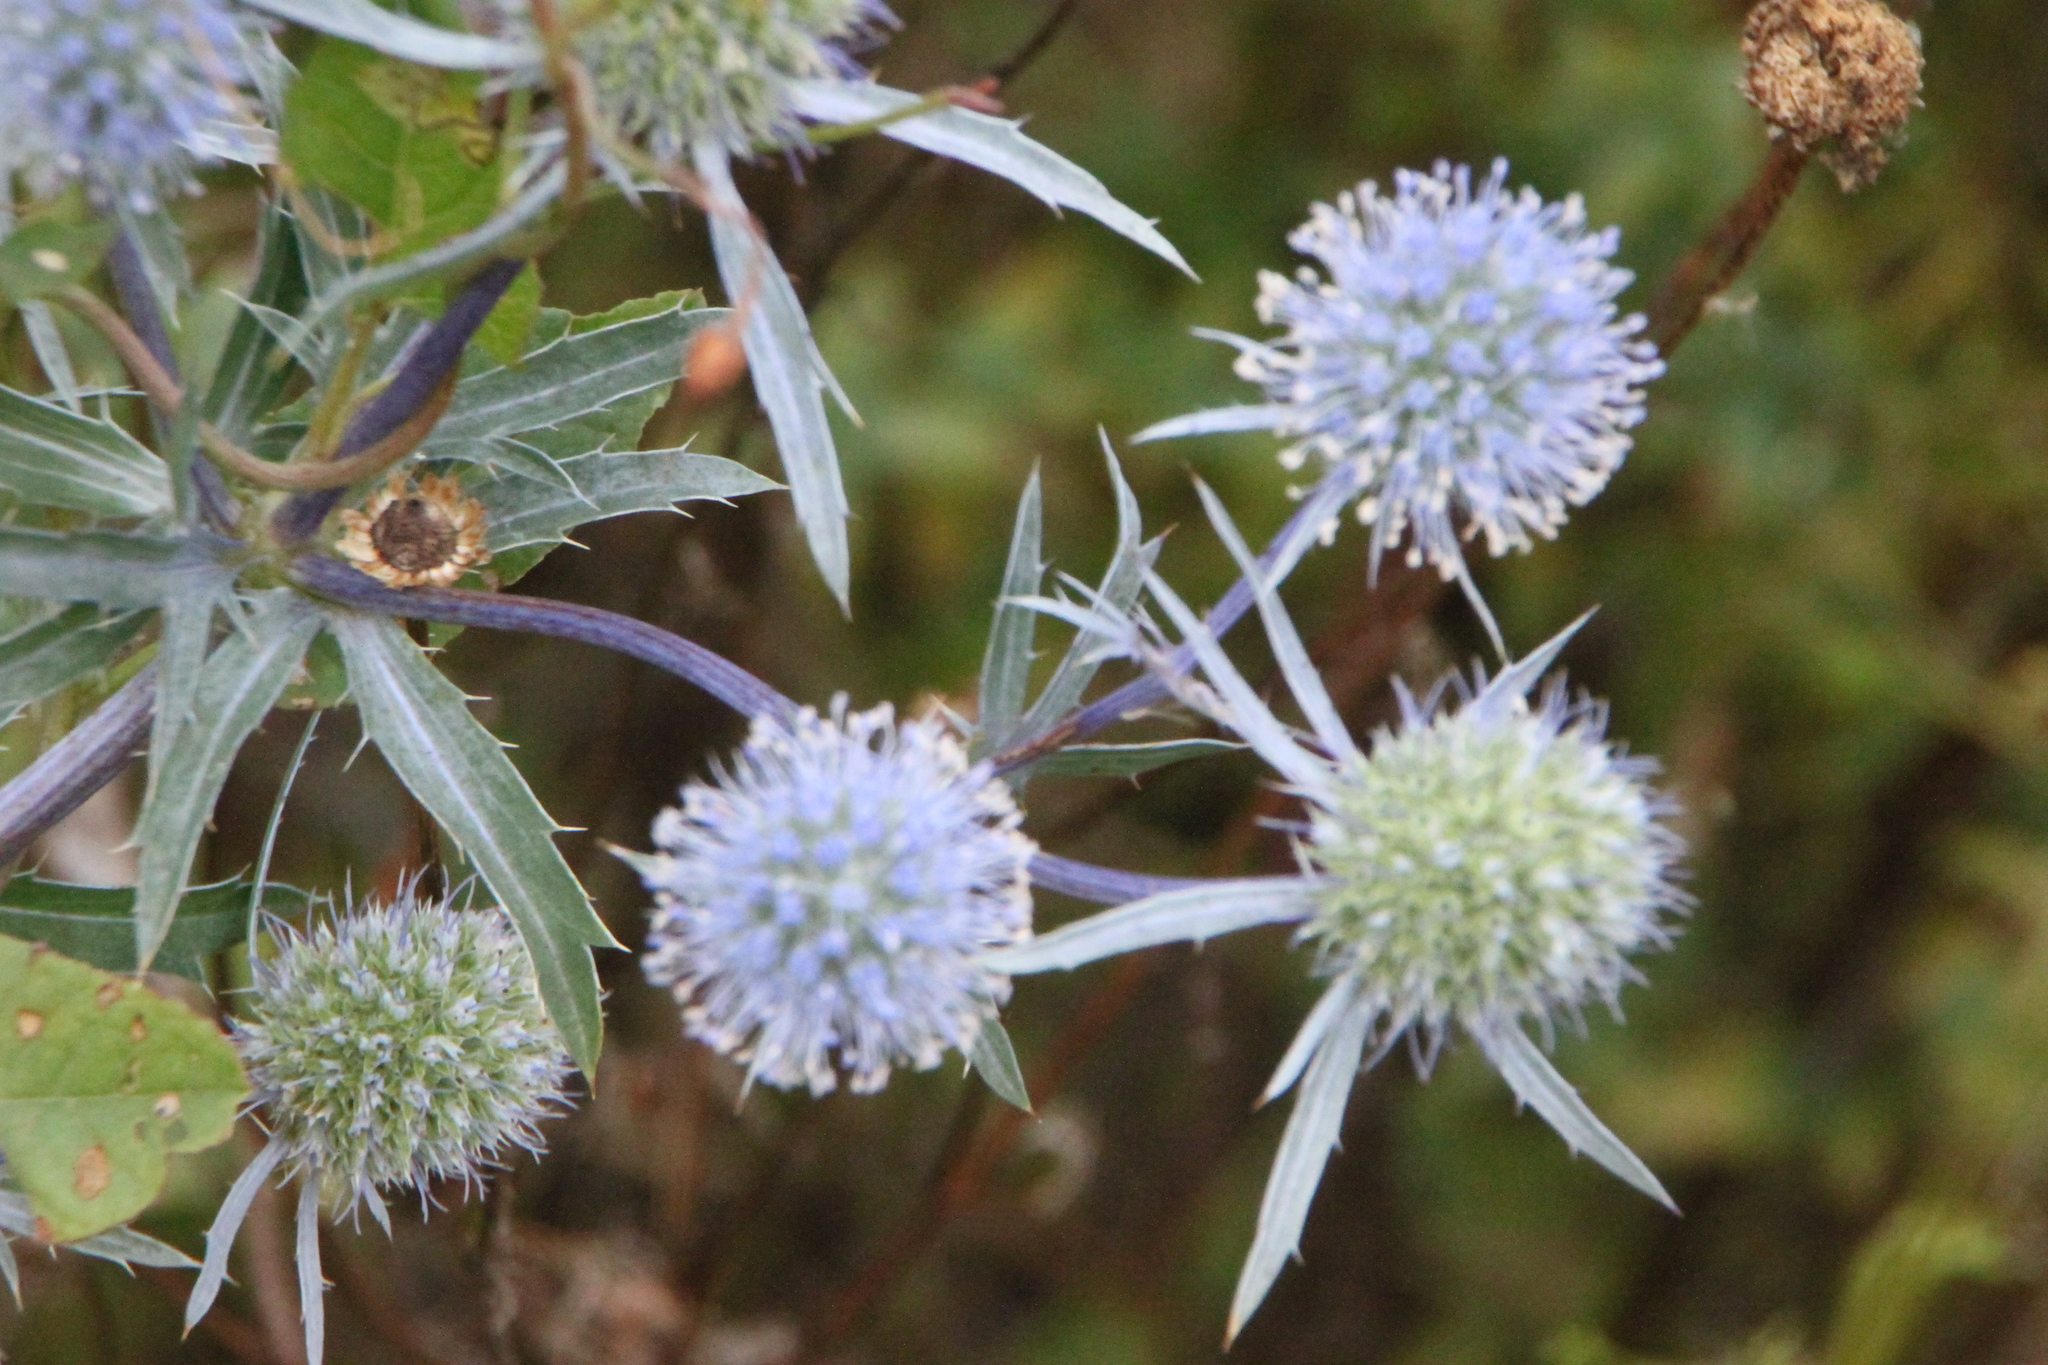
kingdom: Plantae
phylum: Tracheophyta
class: Magnoliopsida
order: Apiales
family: Apiaceae
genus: Eryngium
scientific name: Eryngium planum
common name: Blue eryngo
